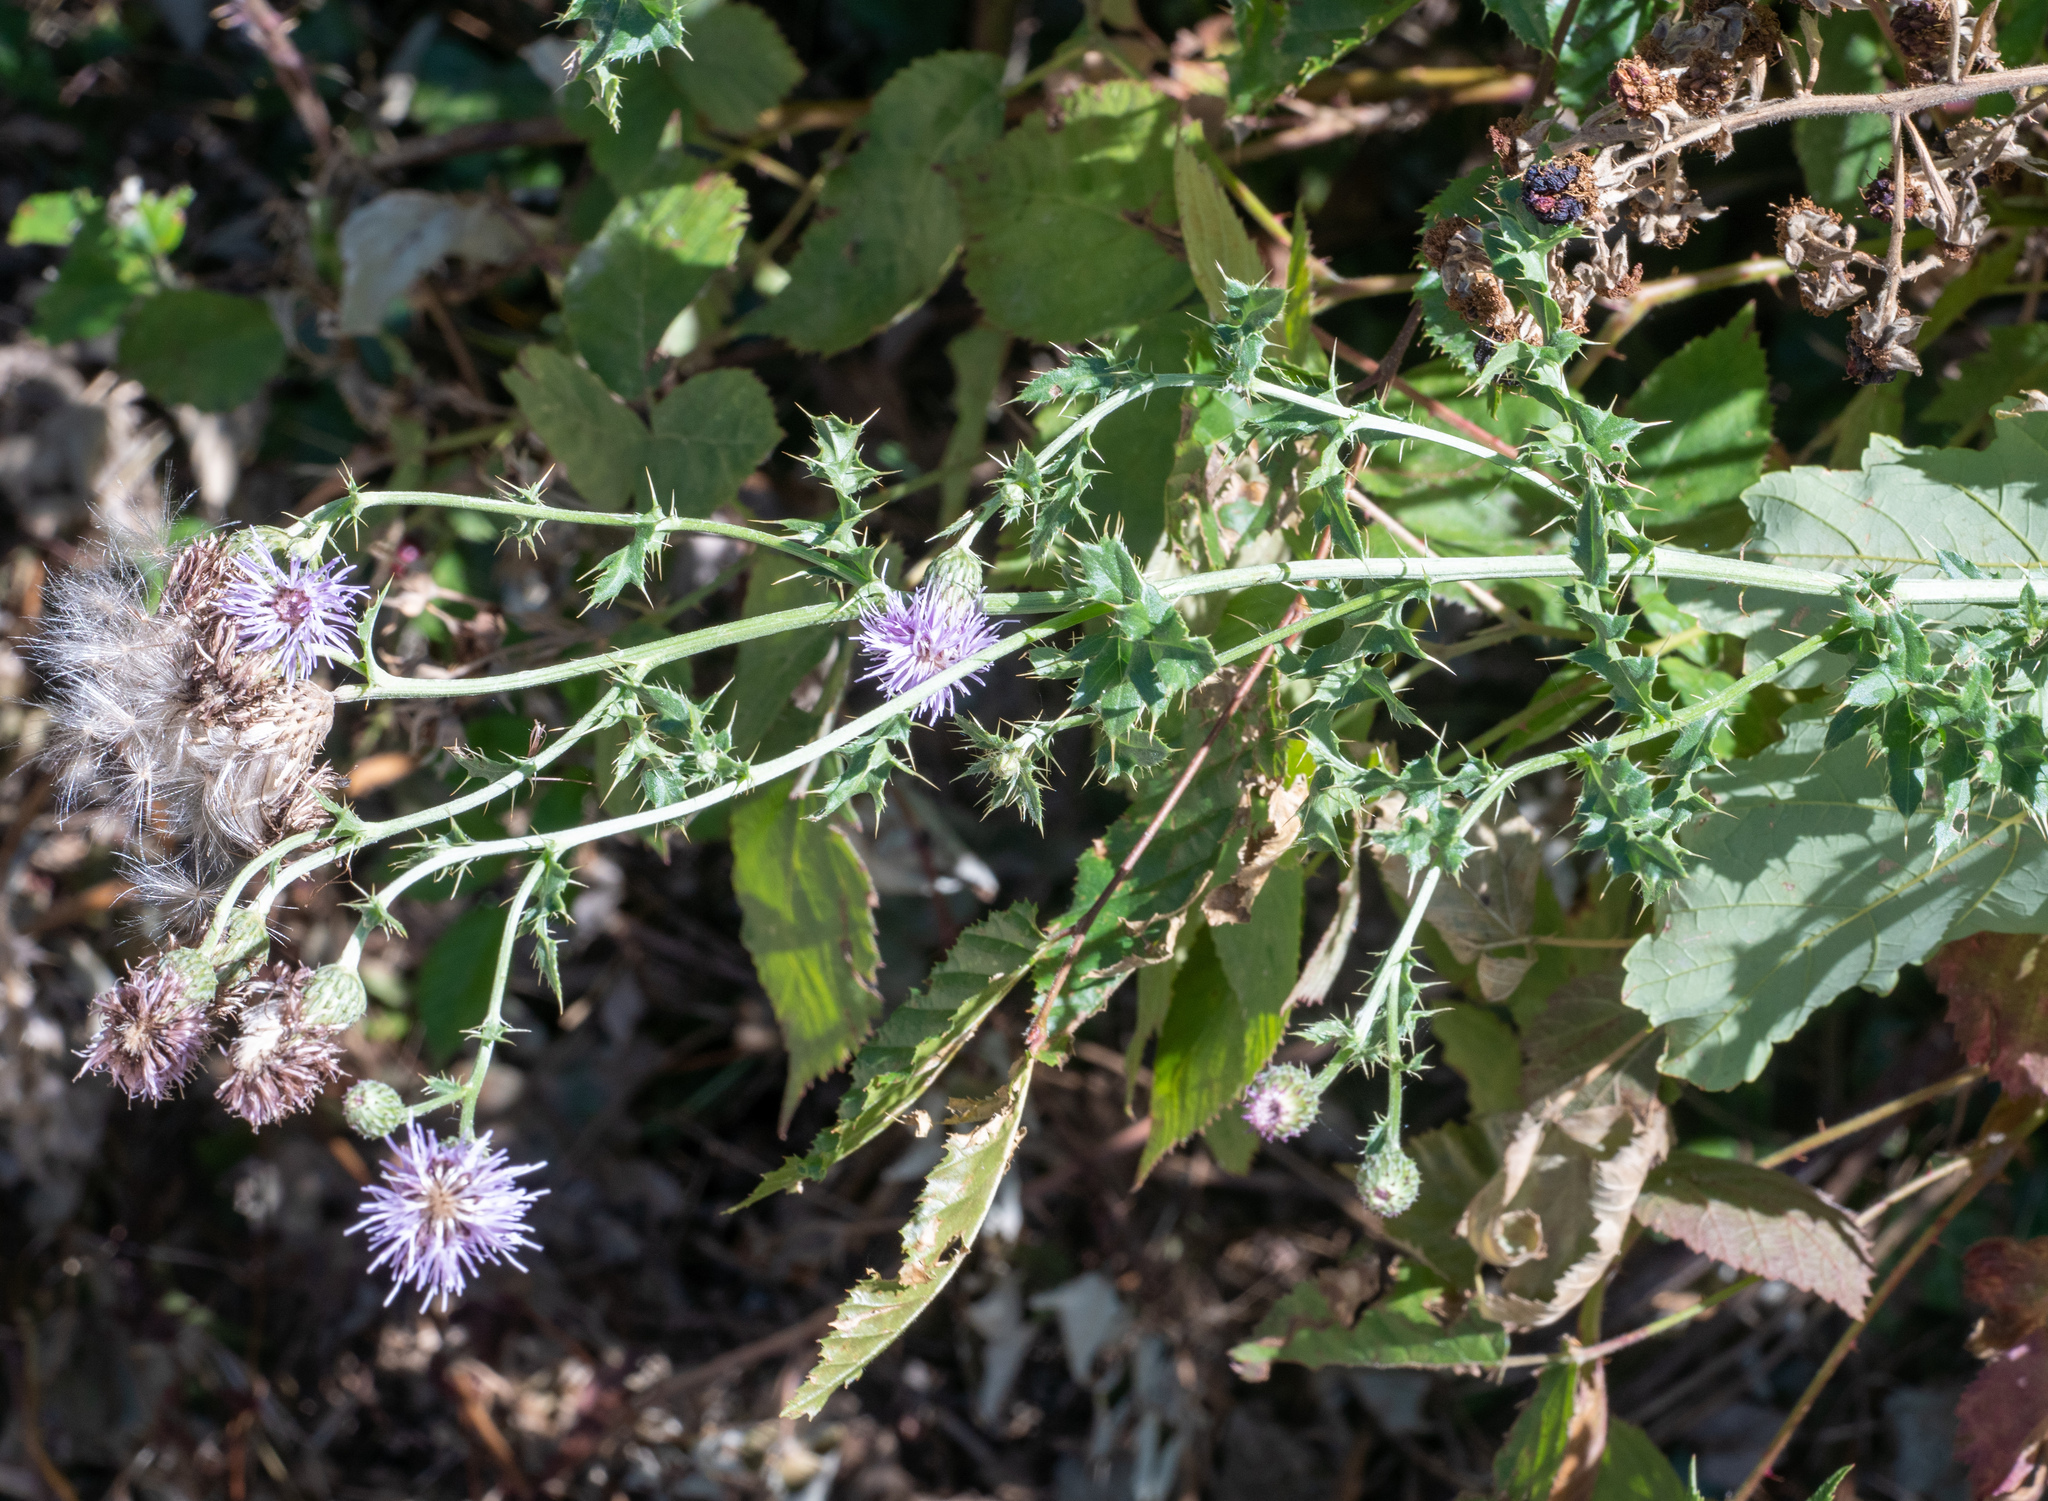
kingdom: Plantae
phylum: Tracheophyta
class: Magnoliopsida
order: Asterales
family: Asteraceae
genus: Cirsium
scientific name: Cirsium arvense
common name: Creeping thistle
